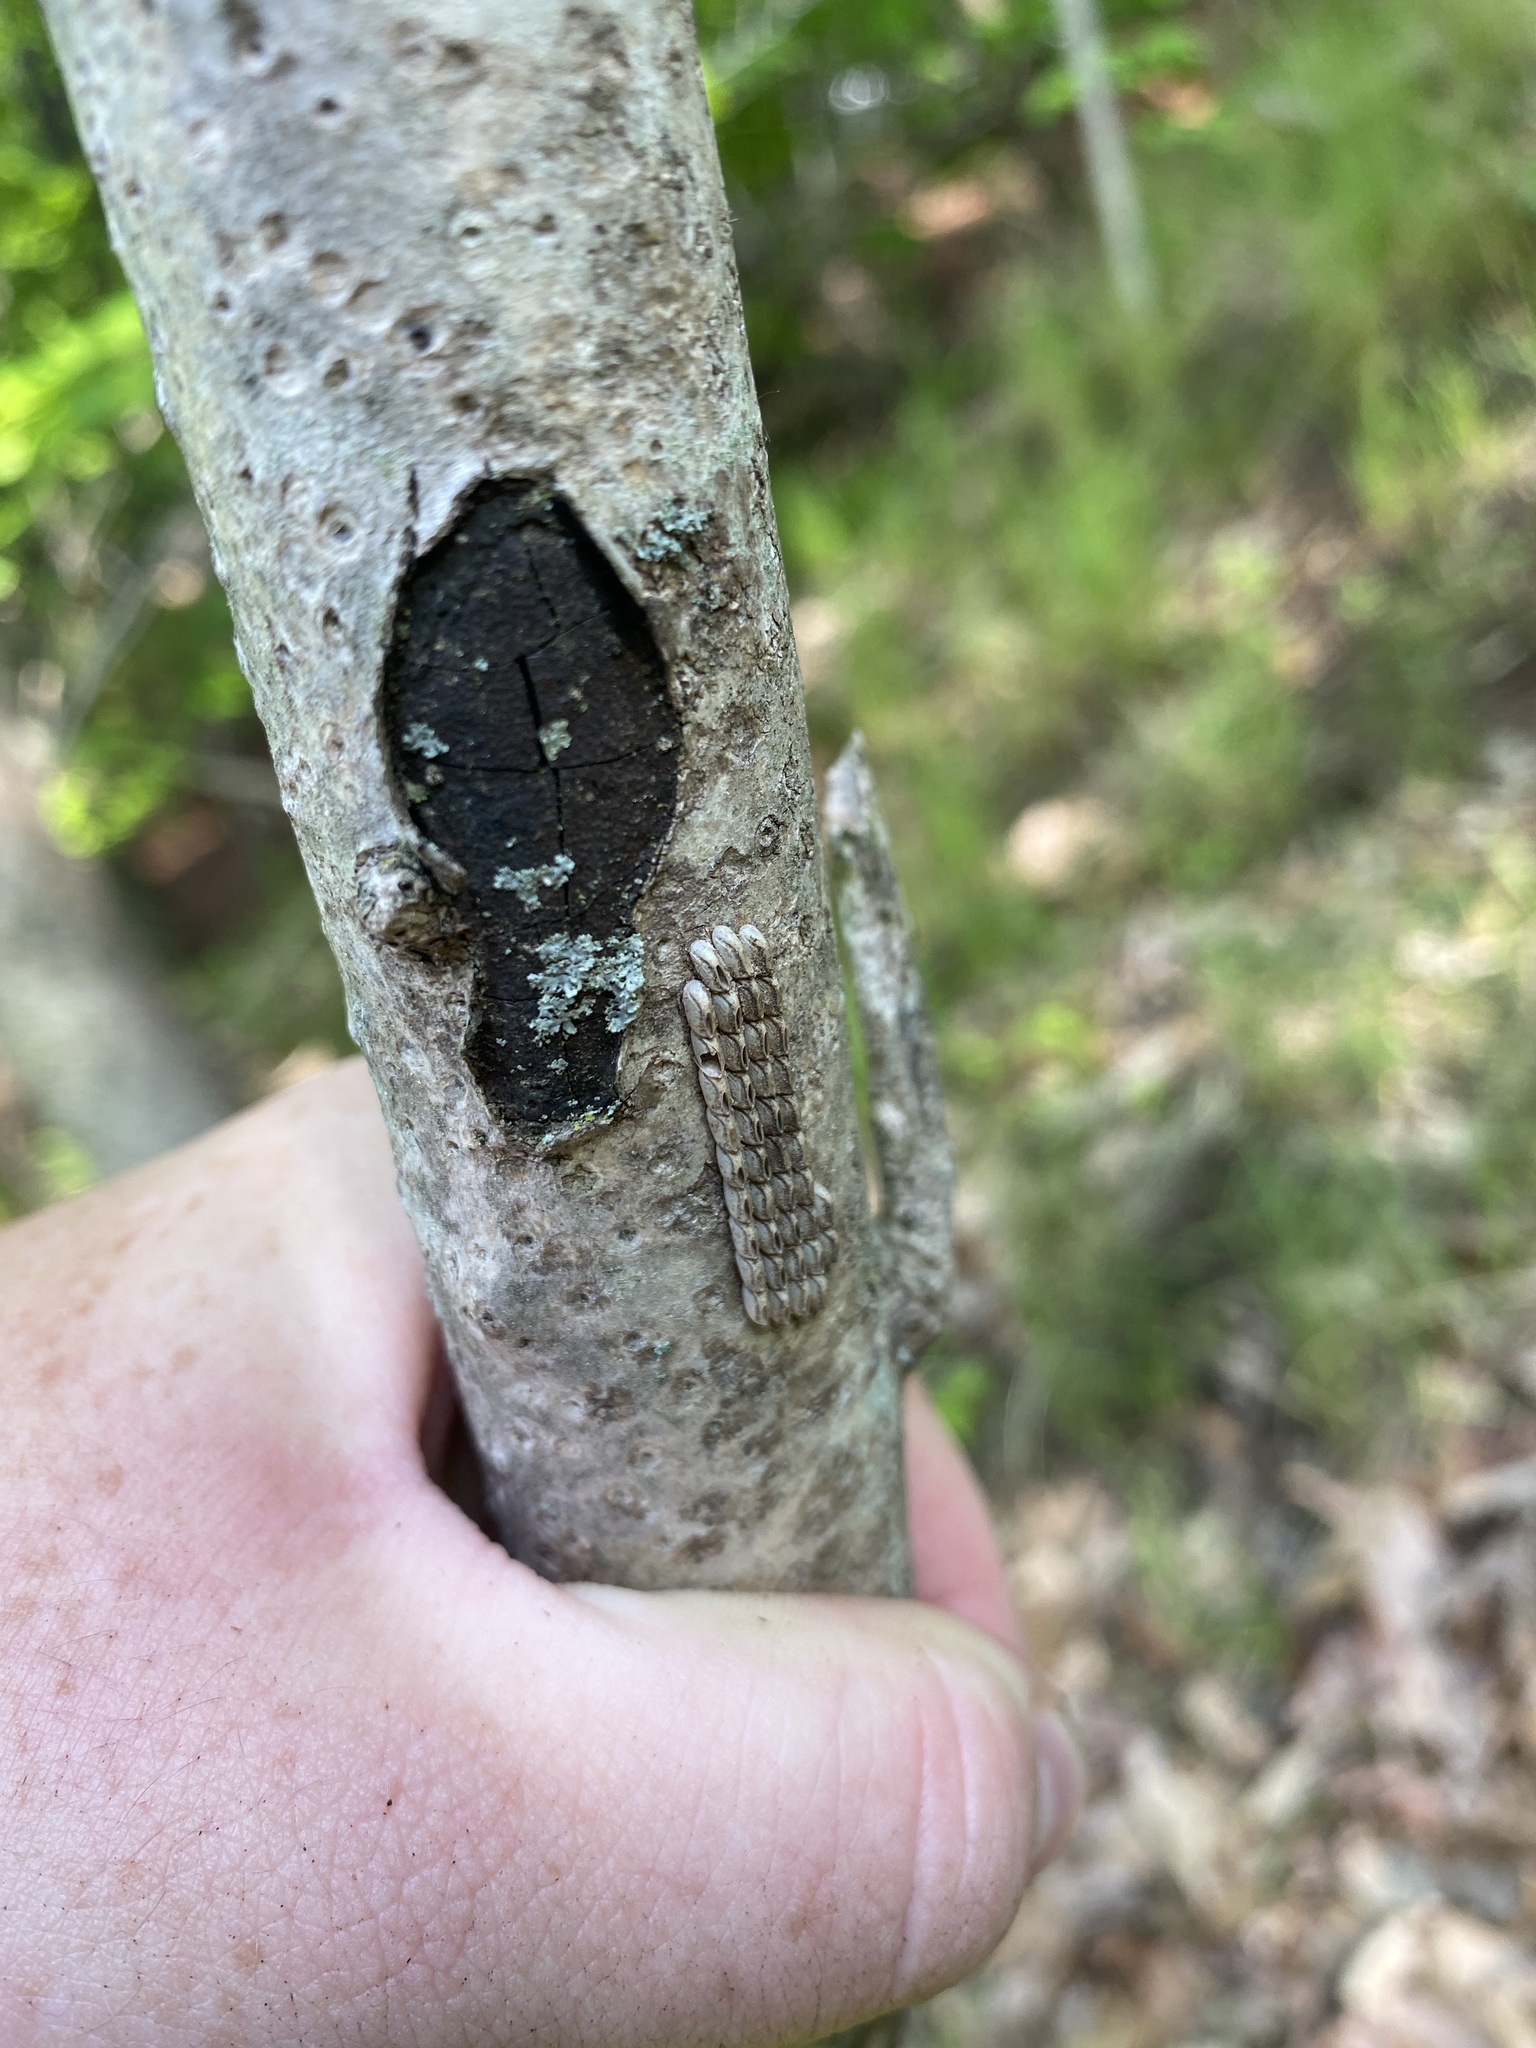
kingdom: Animalia
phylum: Arthropoda
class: Insecta
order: Hemiptera
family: Fulgoridae
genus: Lycorma
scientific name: Lycorma delicatula
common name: Spotted lanternfly
